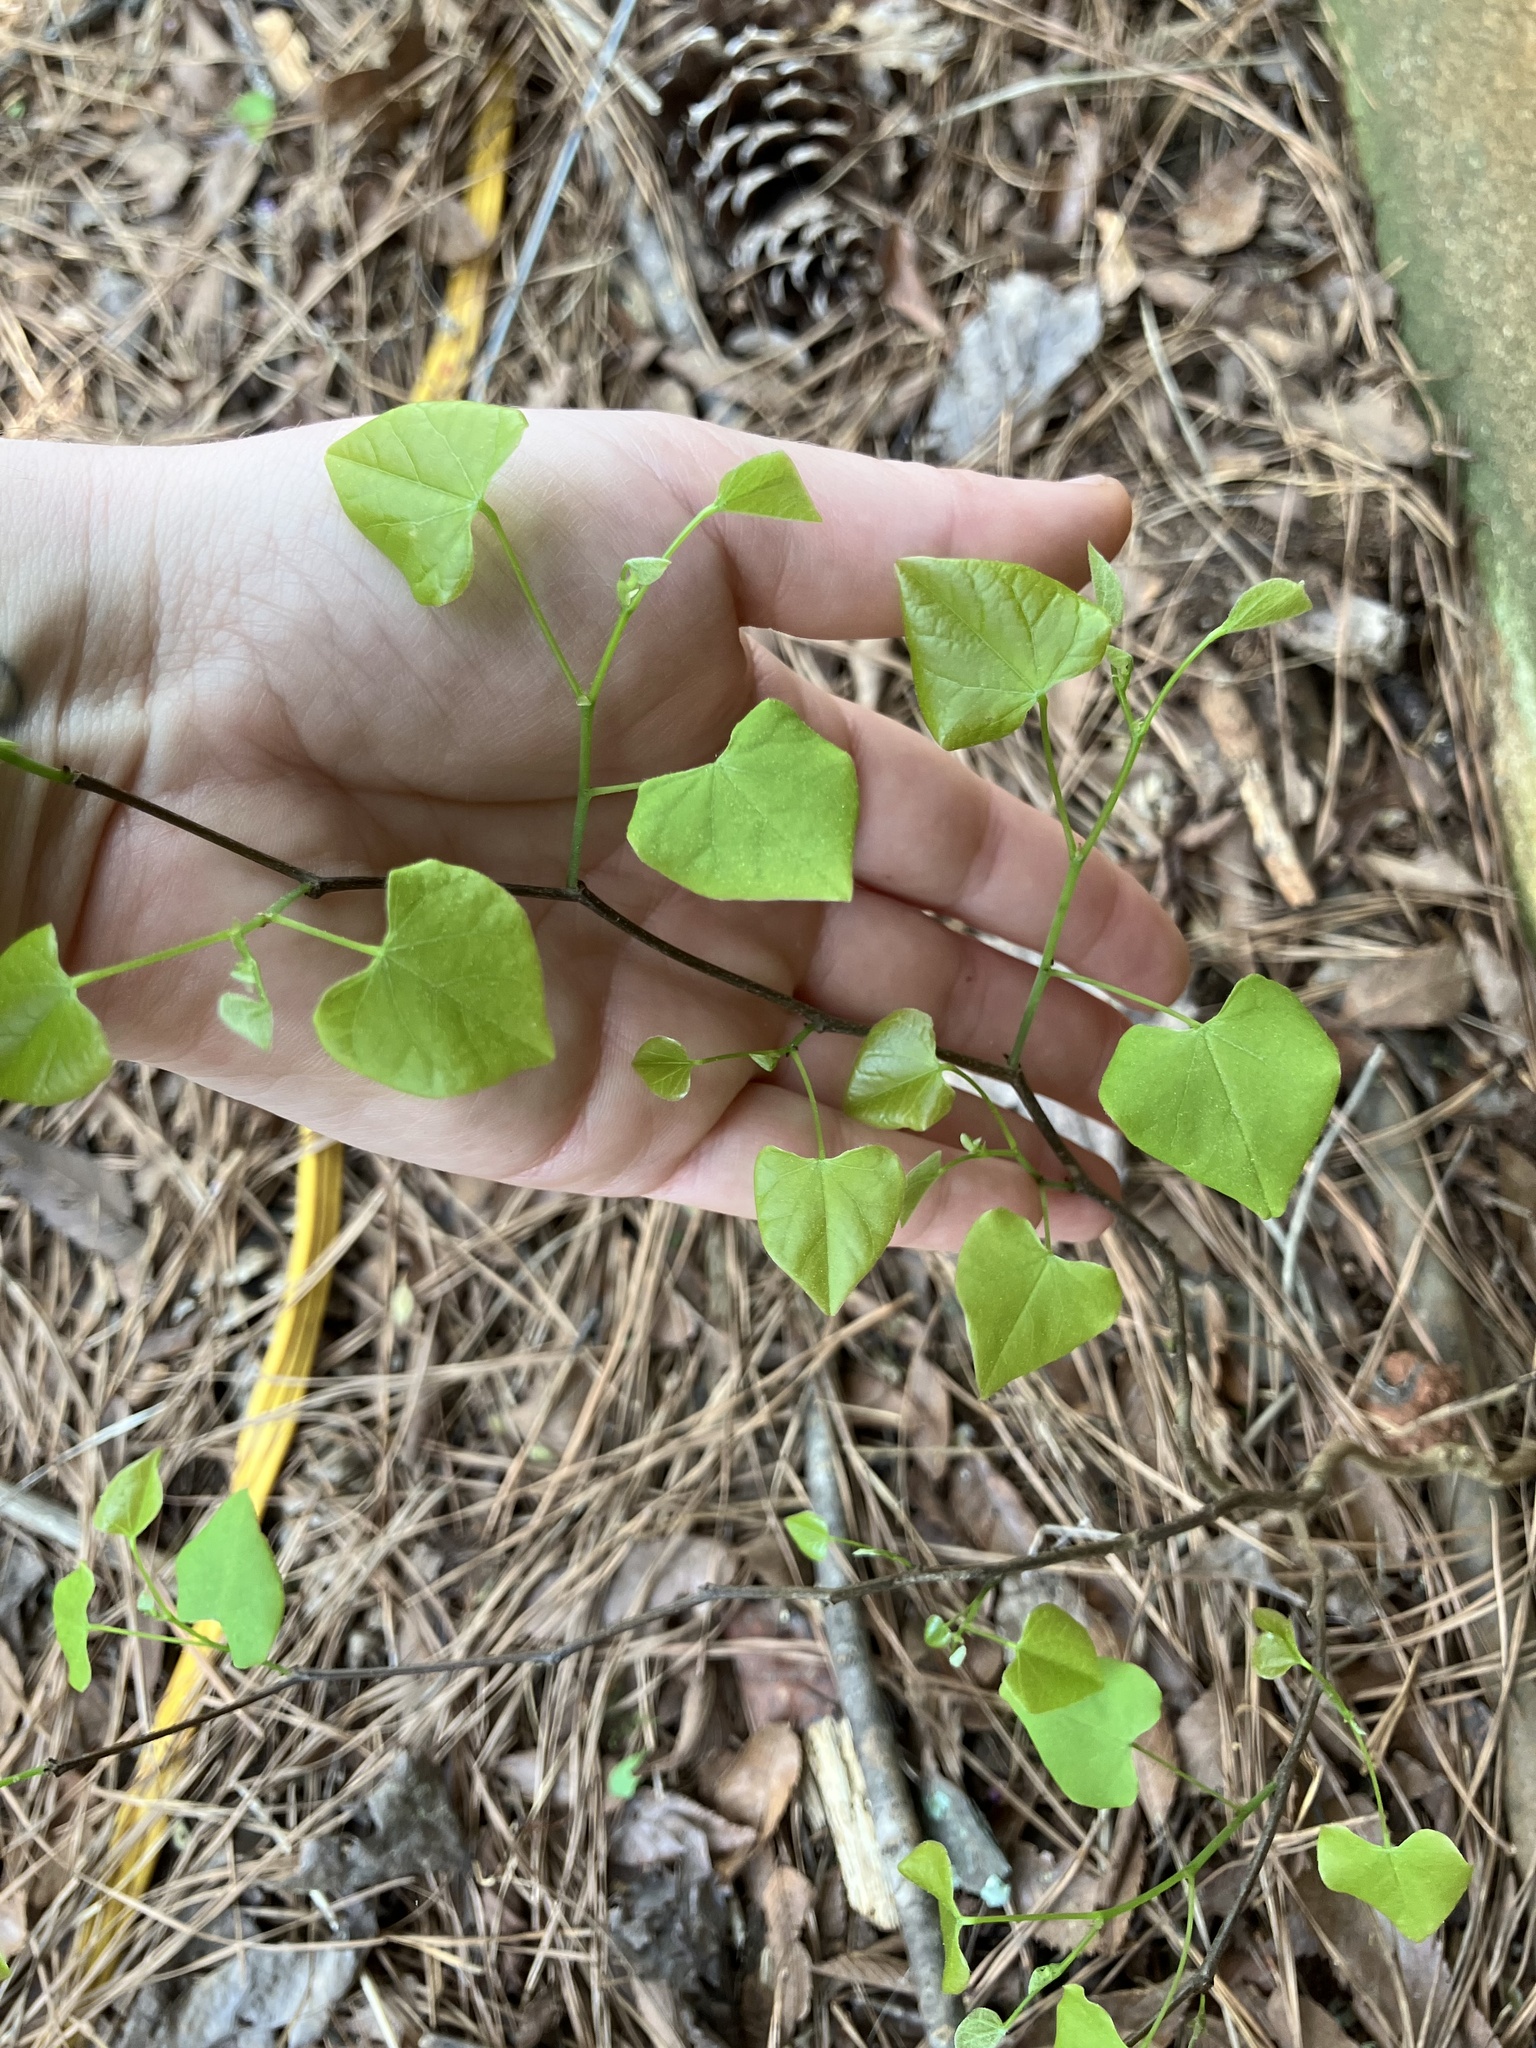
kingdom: Plantae
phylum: Tracheophyta
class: Magnoliopsida
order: Fabales
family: Fabaceae
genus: Cercis
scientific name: Cercis canadensis
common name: Eastern redbud
